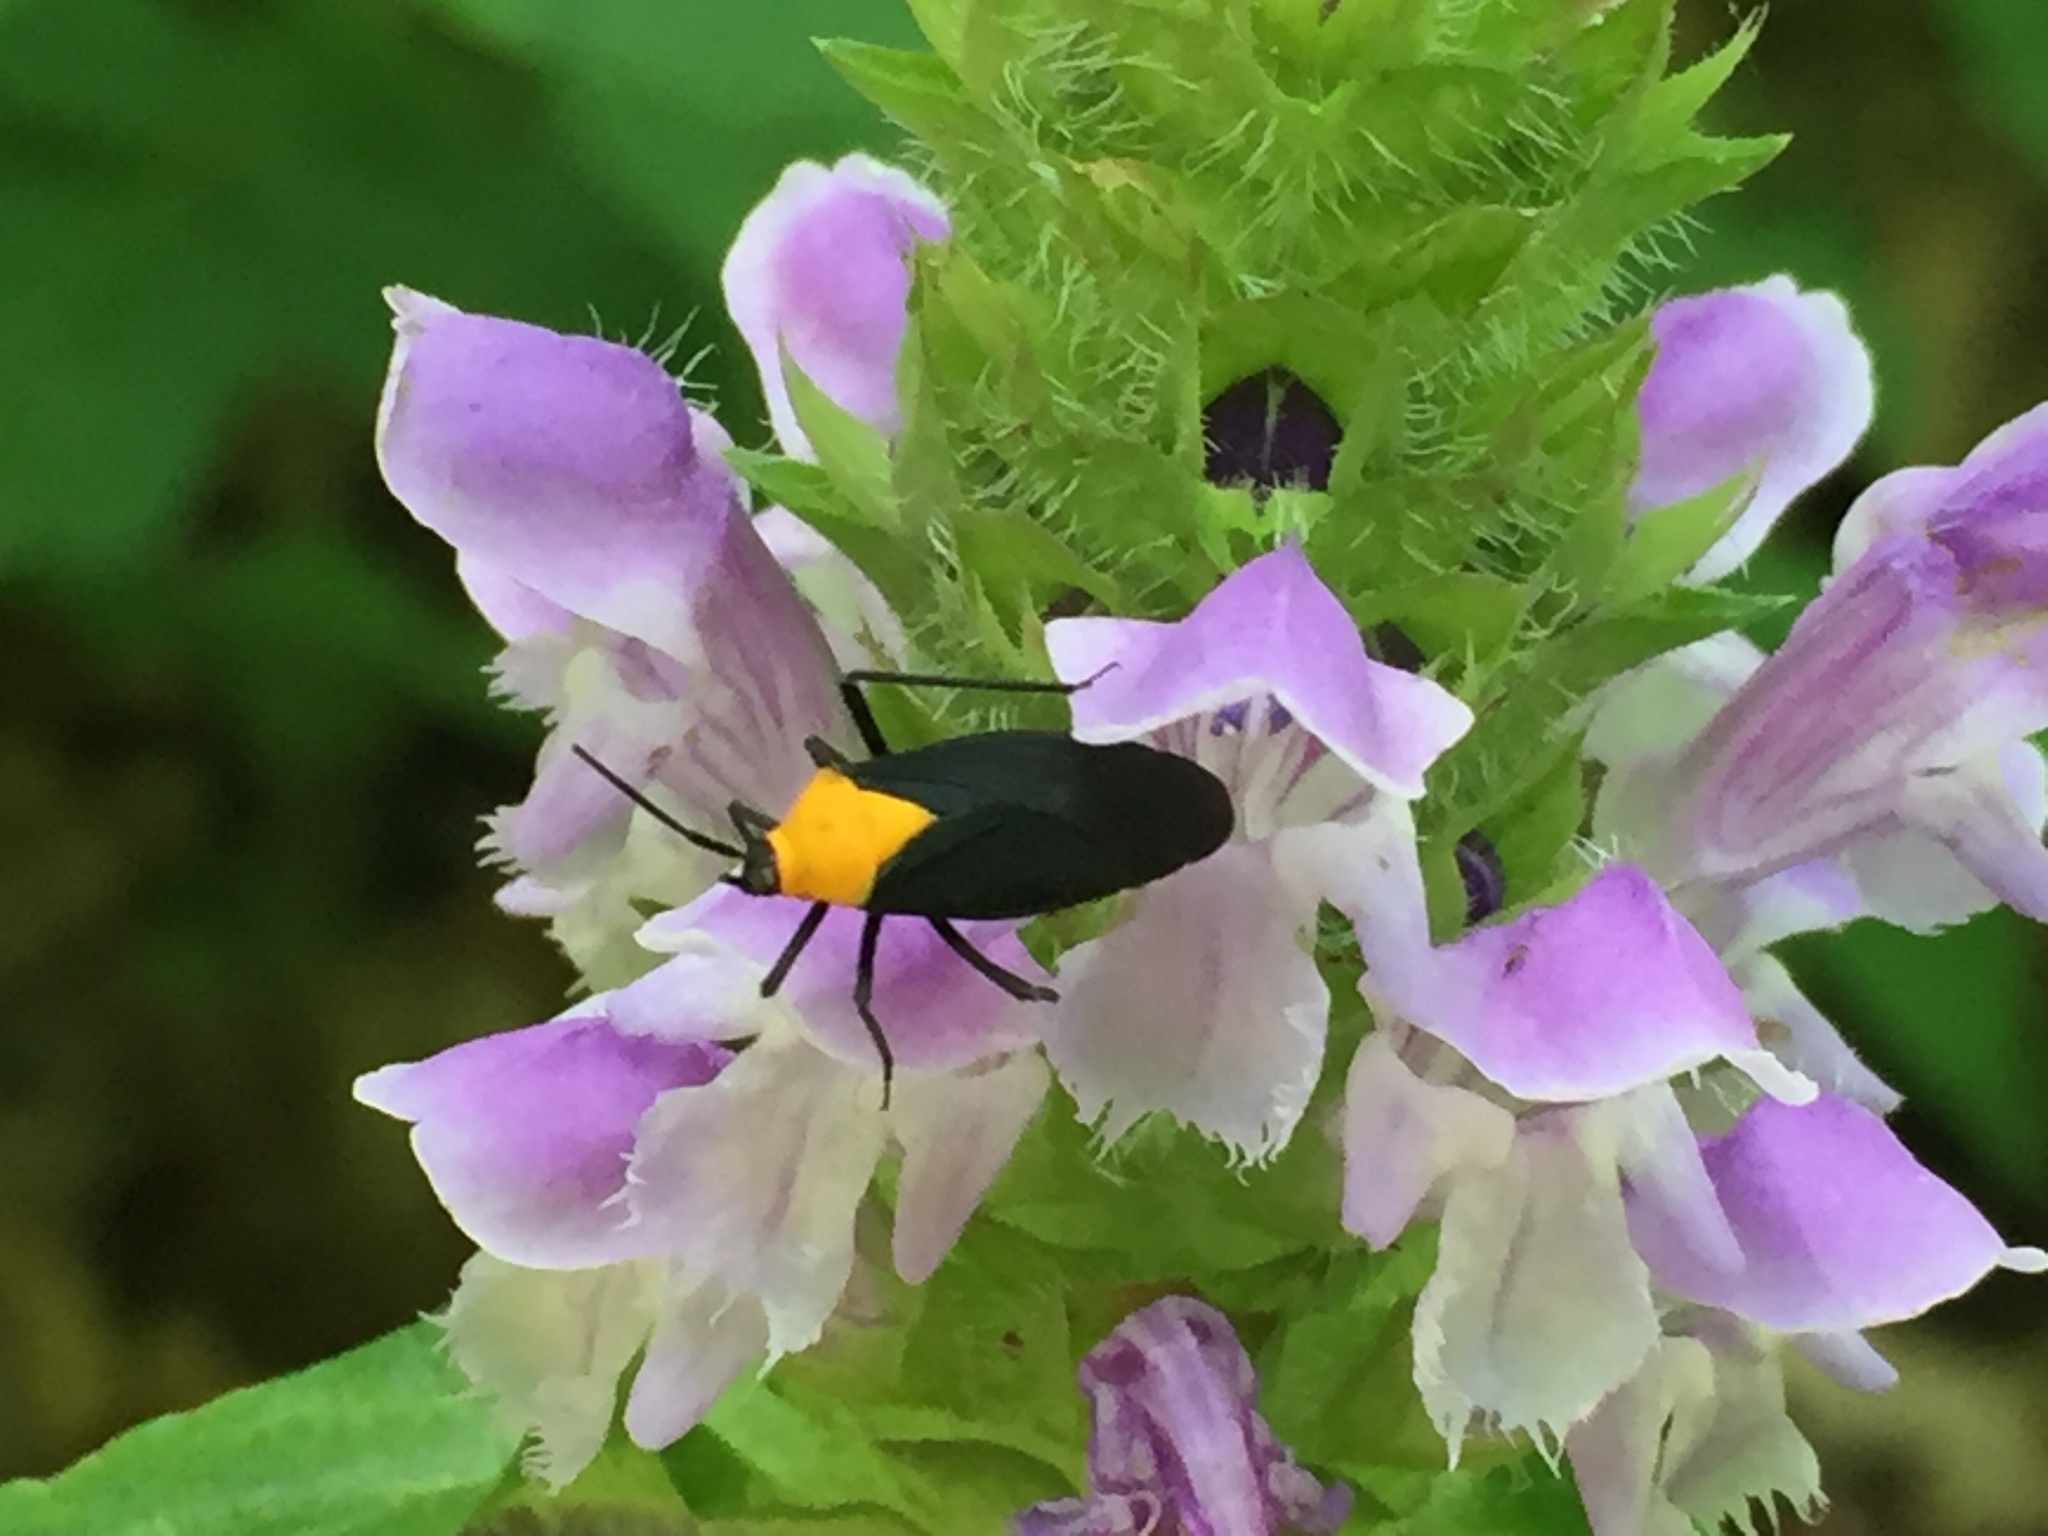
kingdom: Animalia
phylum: Arthropoda
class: Insecta
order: Hemiptera
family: Miridae
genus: Prepops
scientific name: Prepops insitivus
